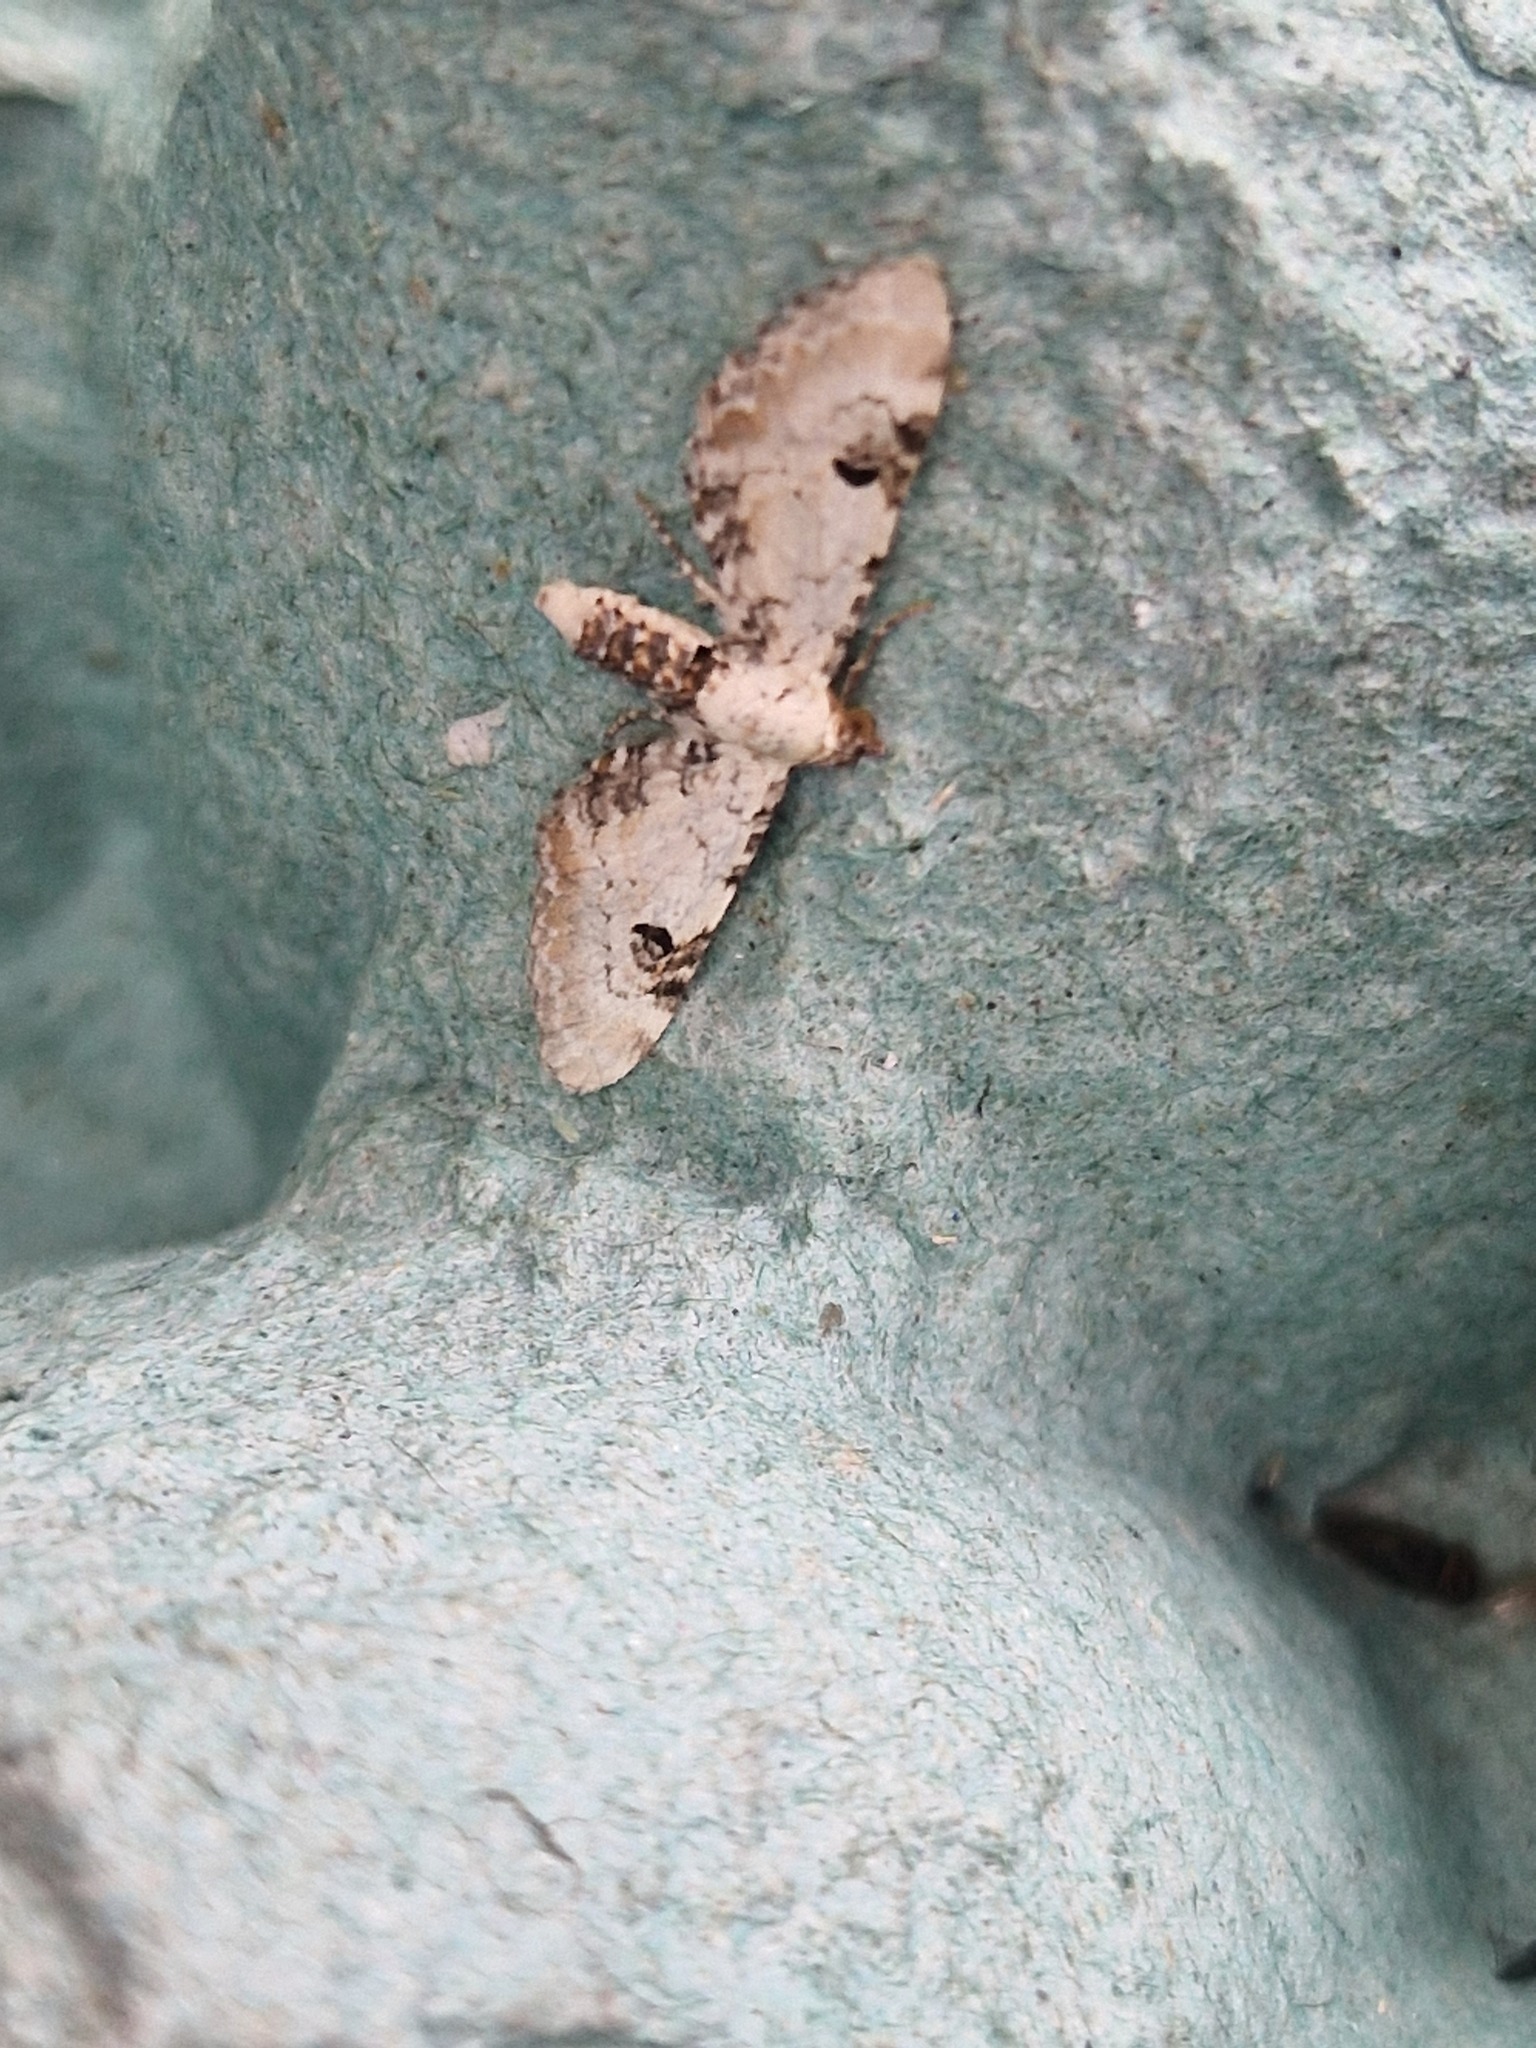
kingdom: Animalia
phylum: Arthropoda
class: Insecta
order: Lepidoptera
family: Geometridae
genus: Eupithecia
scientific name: Eupithecia centaureata
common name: Lime-speck pug
